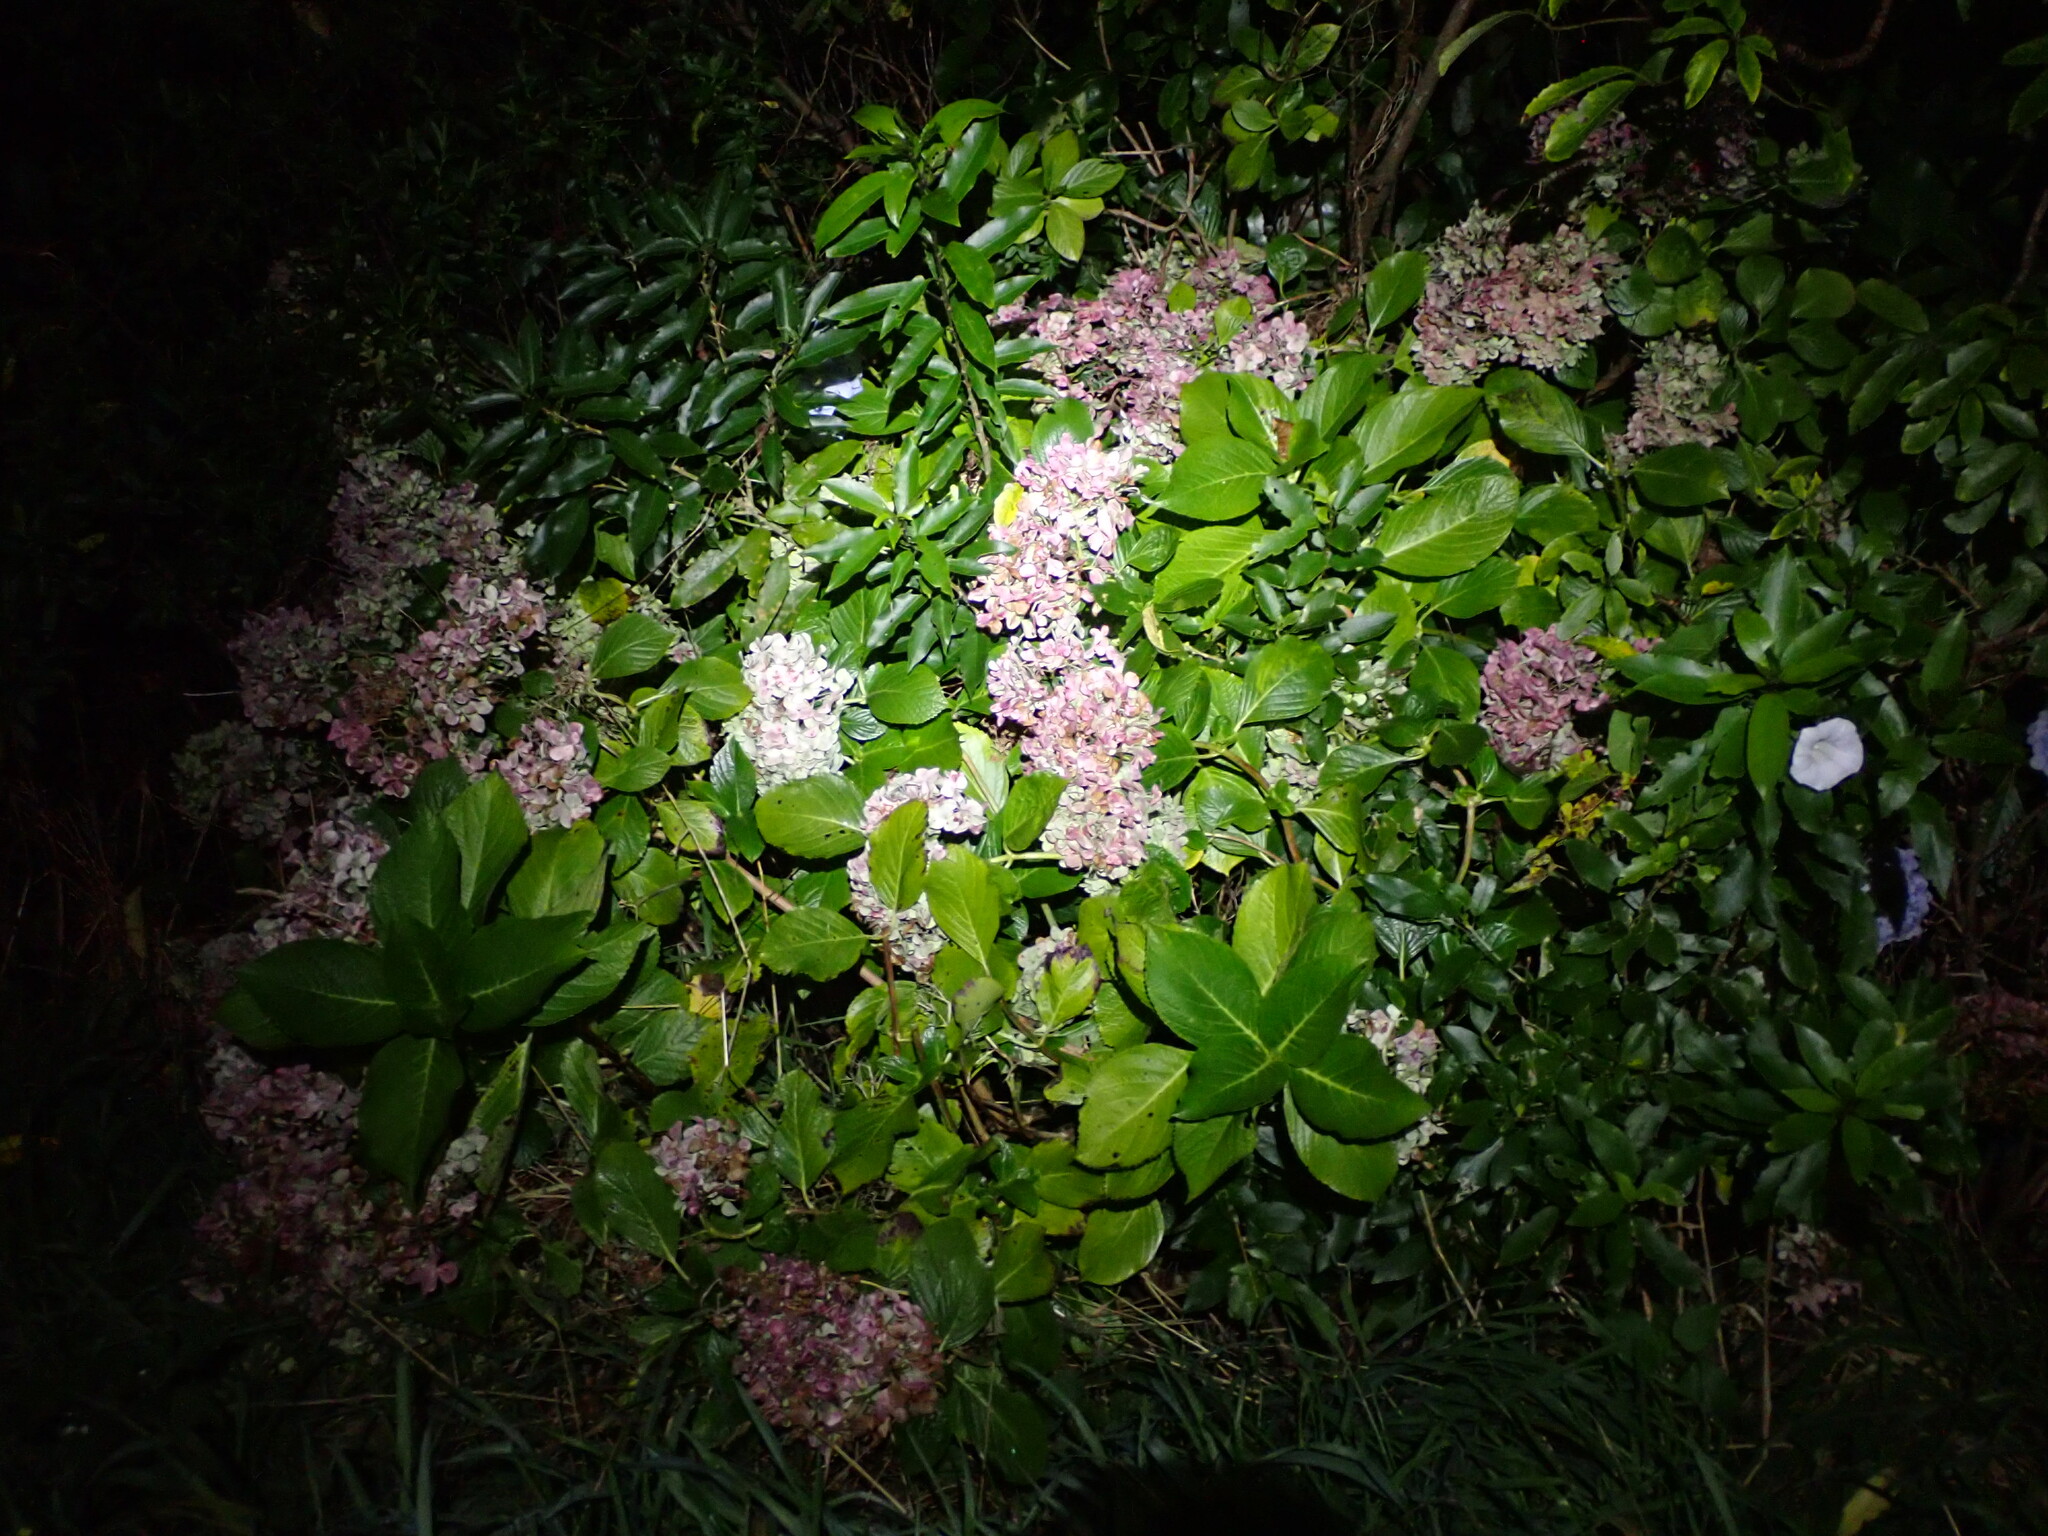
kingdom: Plantae
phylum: Tracheophyta
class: Magnoliopsida
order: Cornales
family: Hydrangeaceae
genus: Hydrangea
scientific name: Hydrangea macrophylla
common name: Hydrangea
